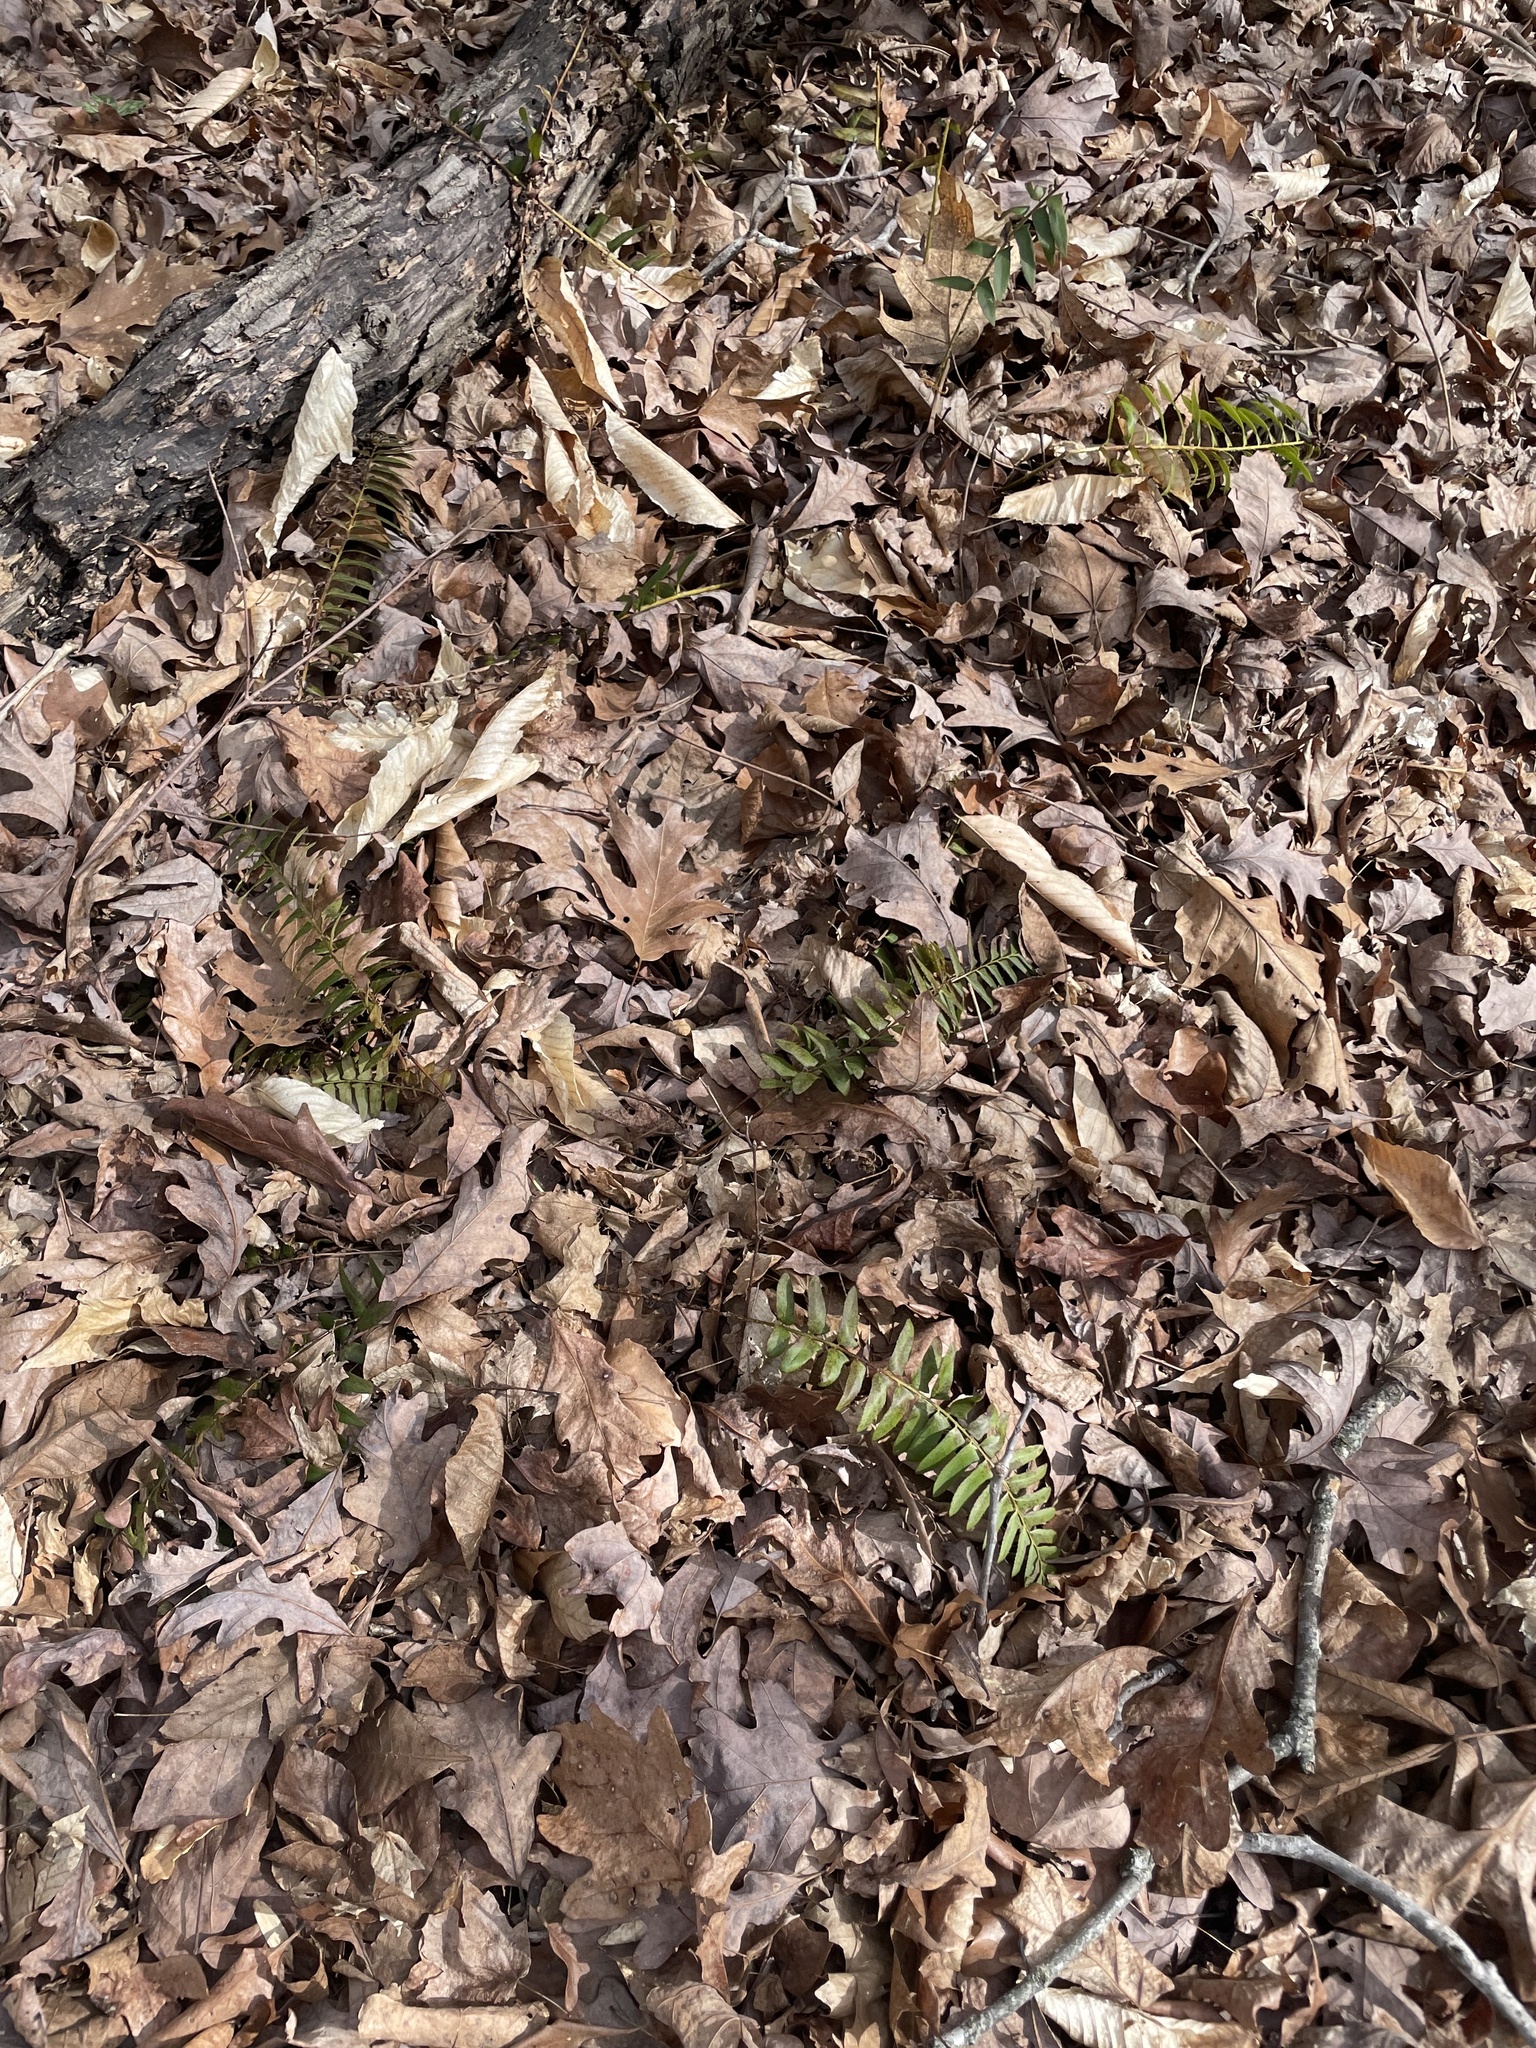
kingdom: Plantae
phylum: Tracheophyta
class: Polypodiopsida
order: Polypodiales
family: Dryopteridaceae
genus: Polystichum
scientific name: Polystichum acrostichoides
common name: Christmas fern
